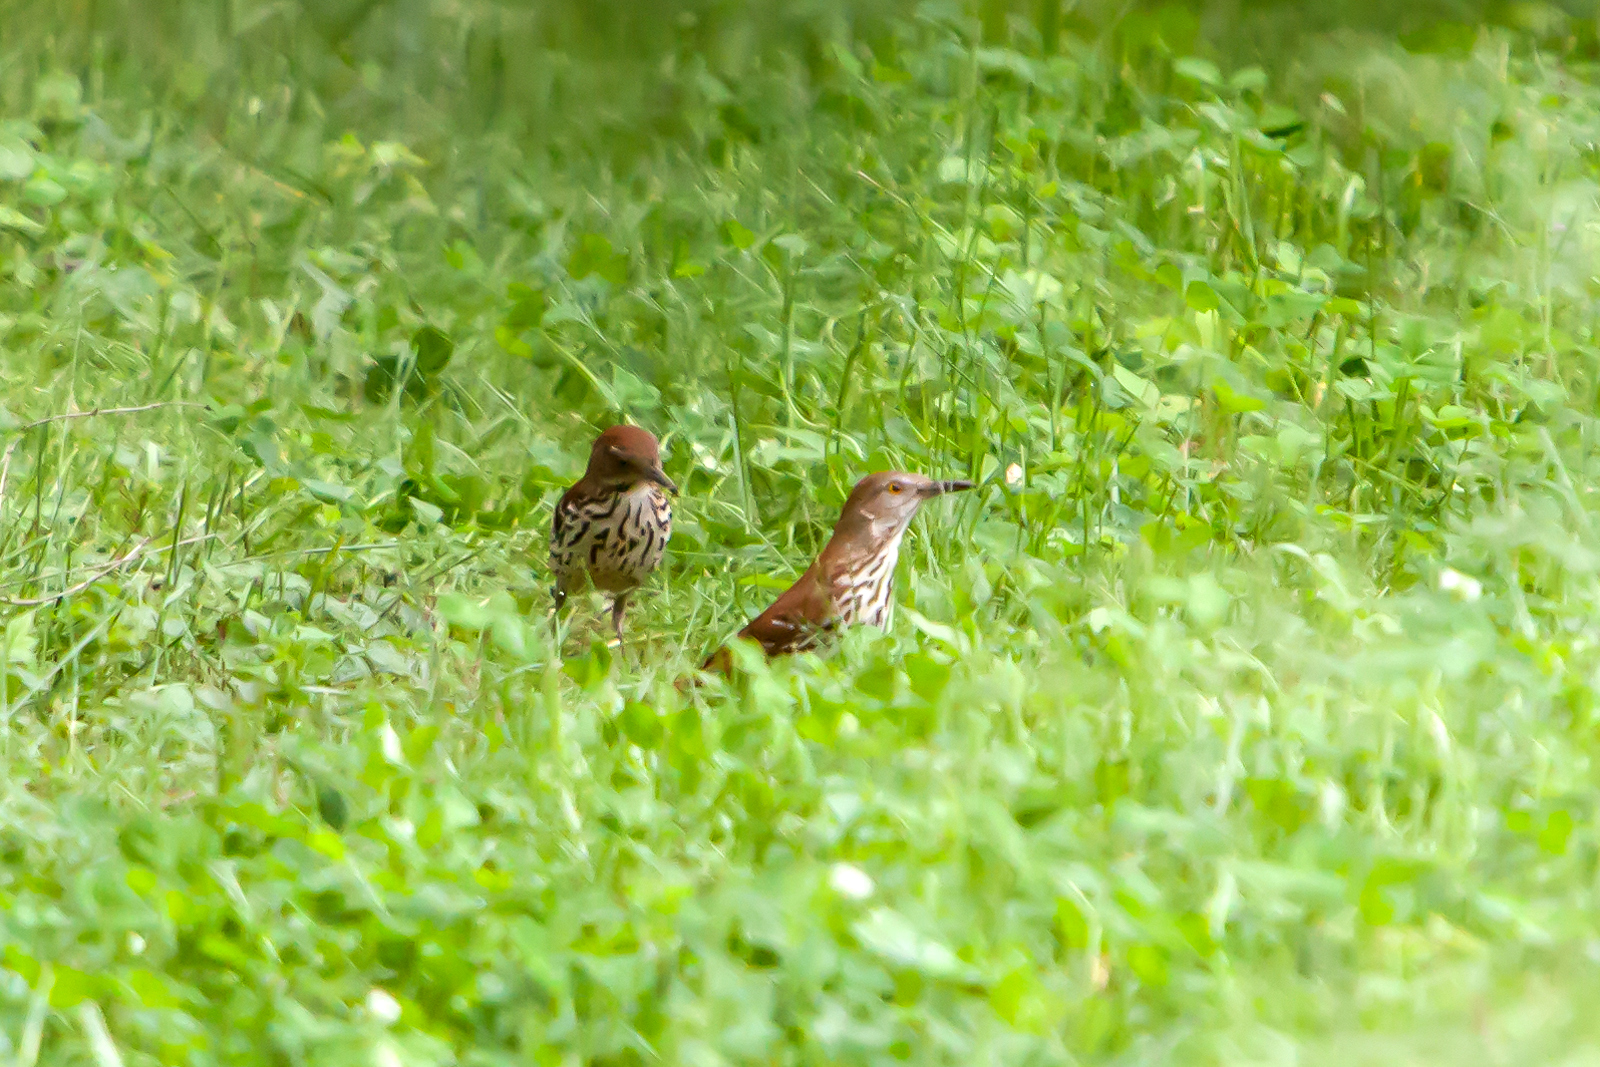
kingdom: Animalia
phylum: Chordata
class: Aves
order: Passeriformes
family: Mimidae
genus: Toxostoma
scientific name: Toxostoma rufum
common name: Brown thrasher
